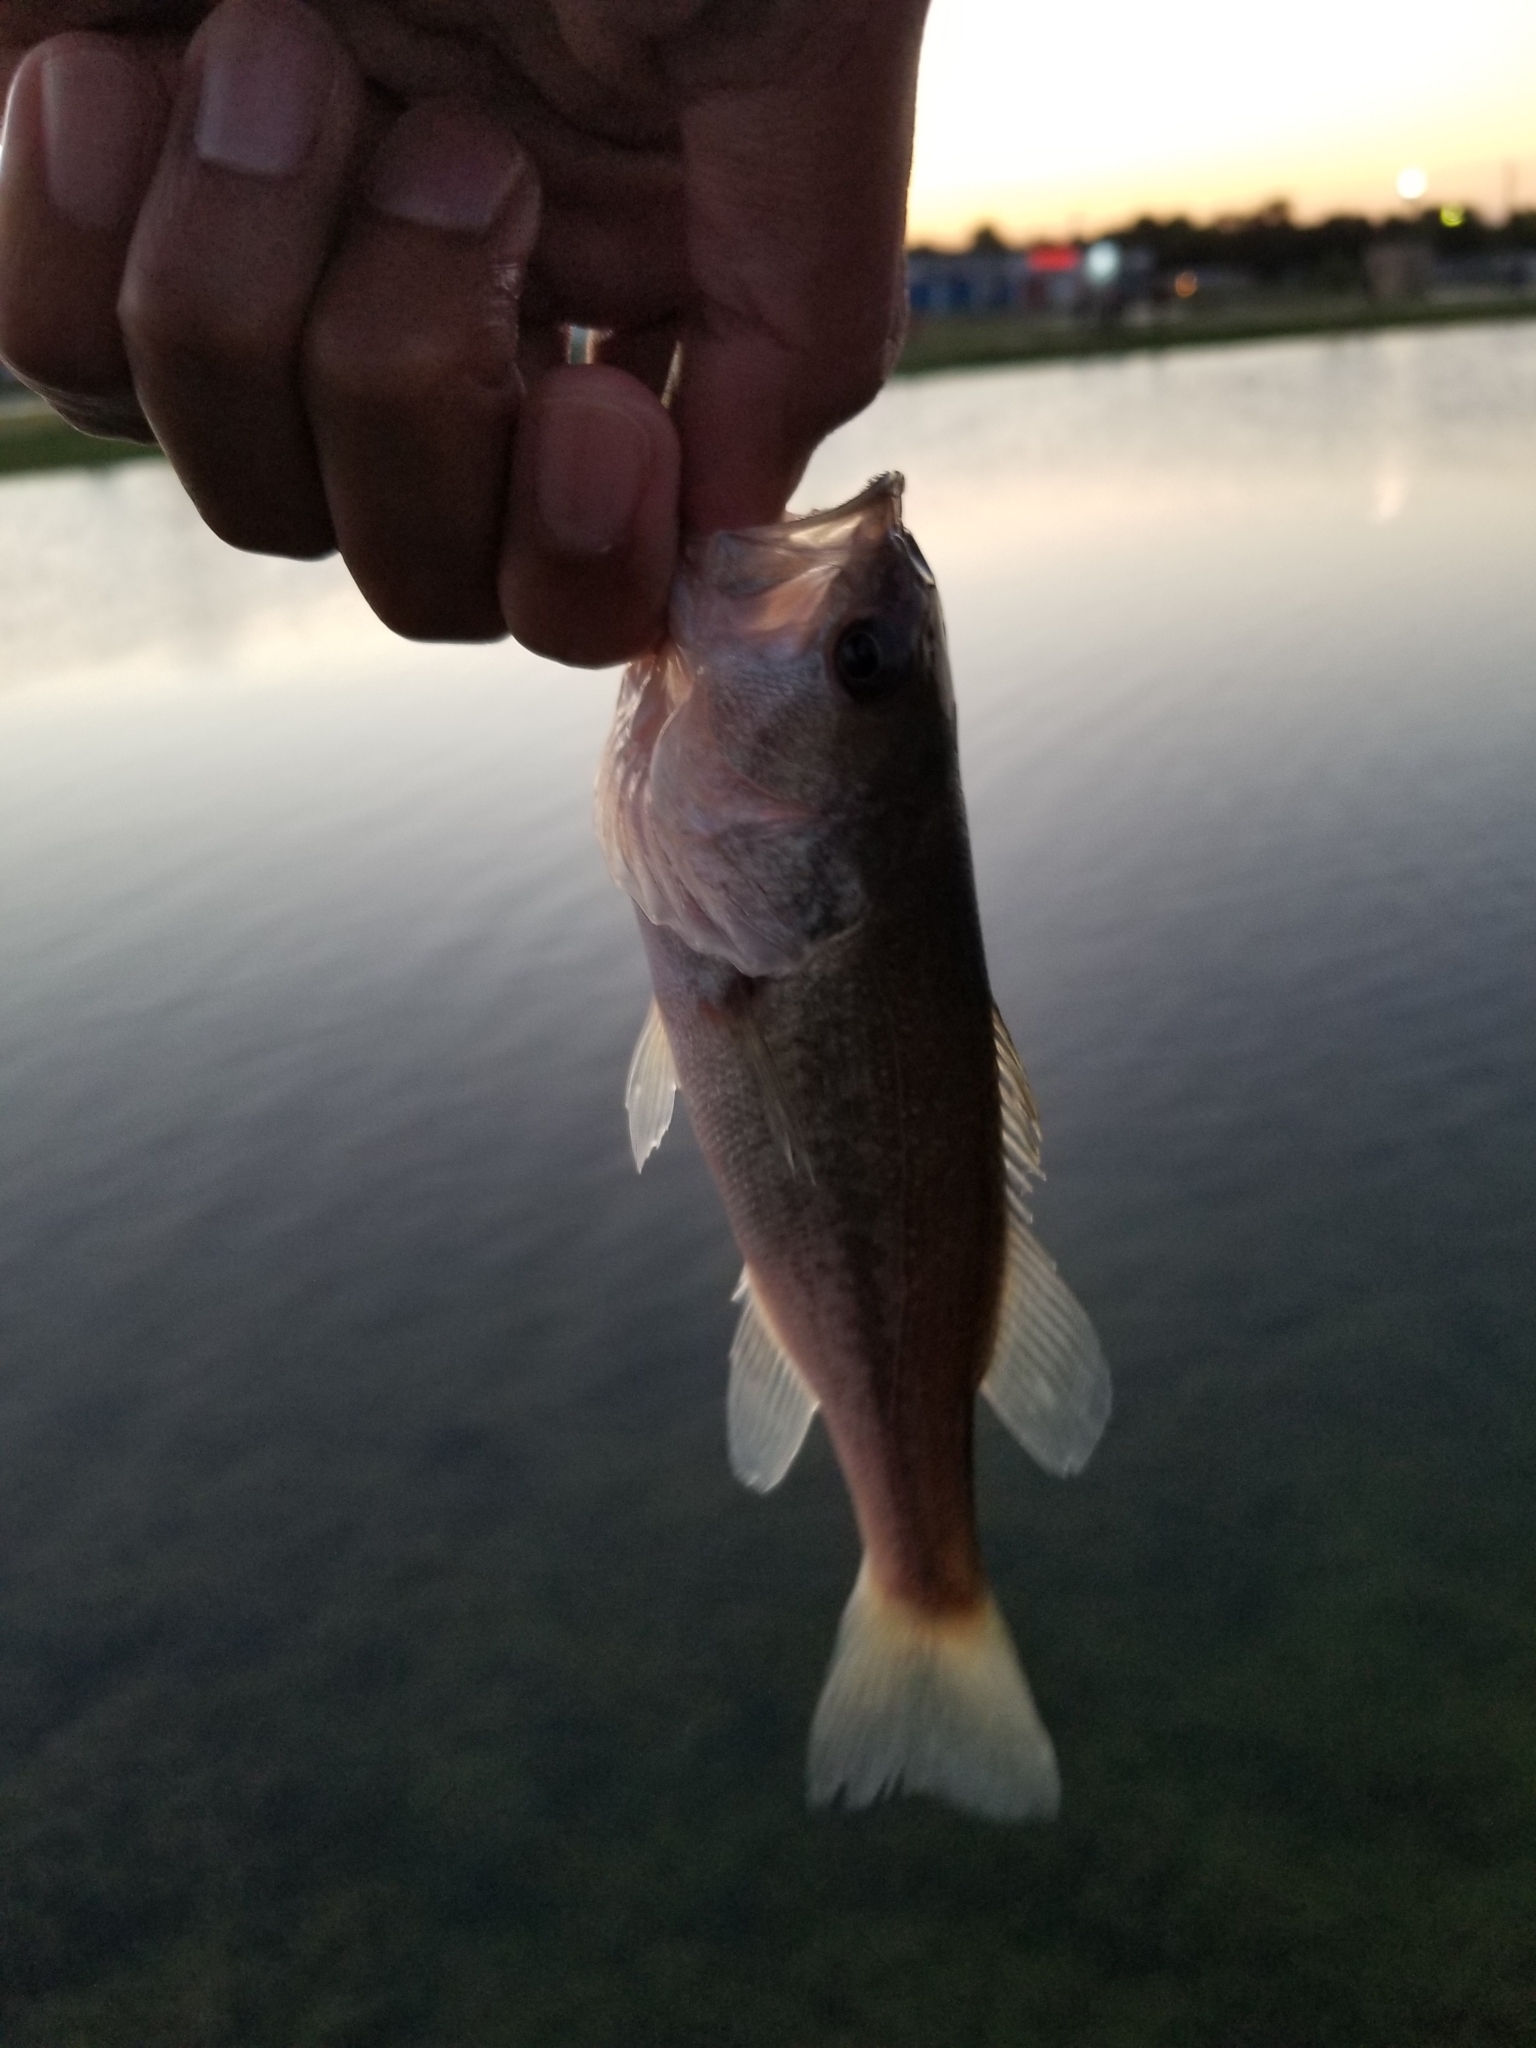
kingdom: Animalia
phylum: Chordata
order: Perciformes
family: Centrarchidae
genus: Micropterus
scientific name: Micropterus
